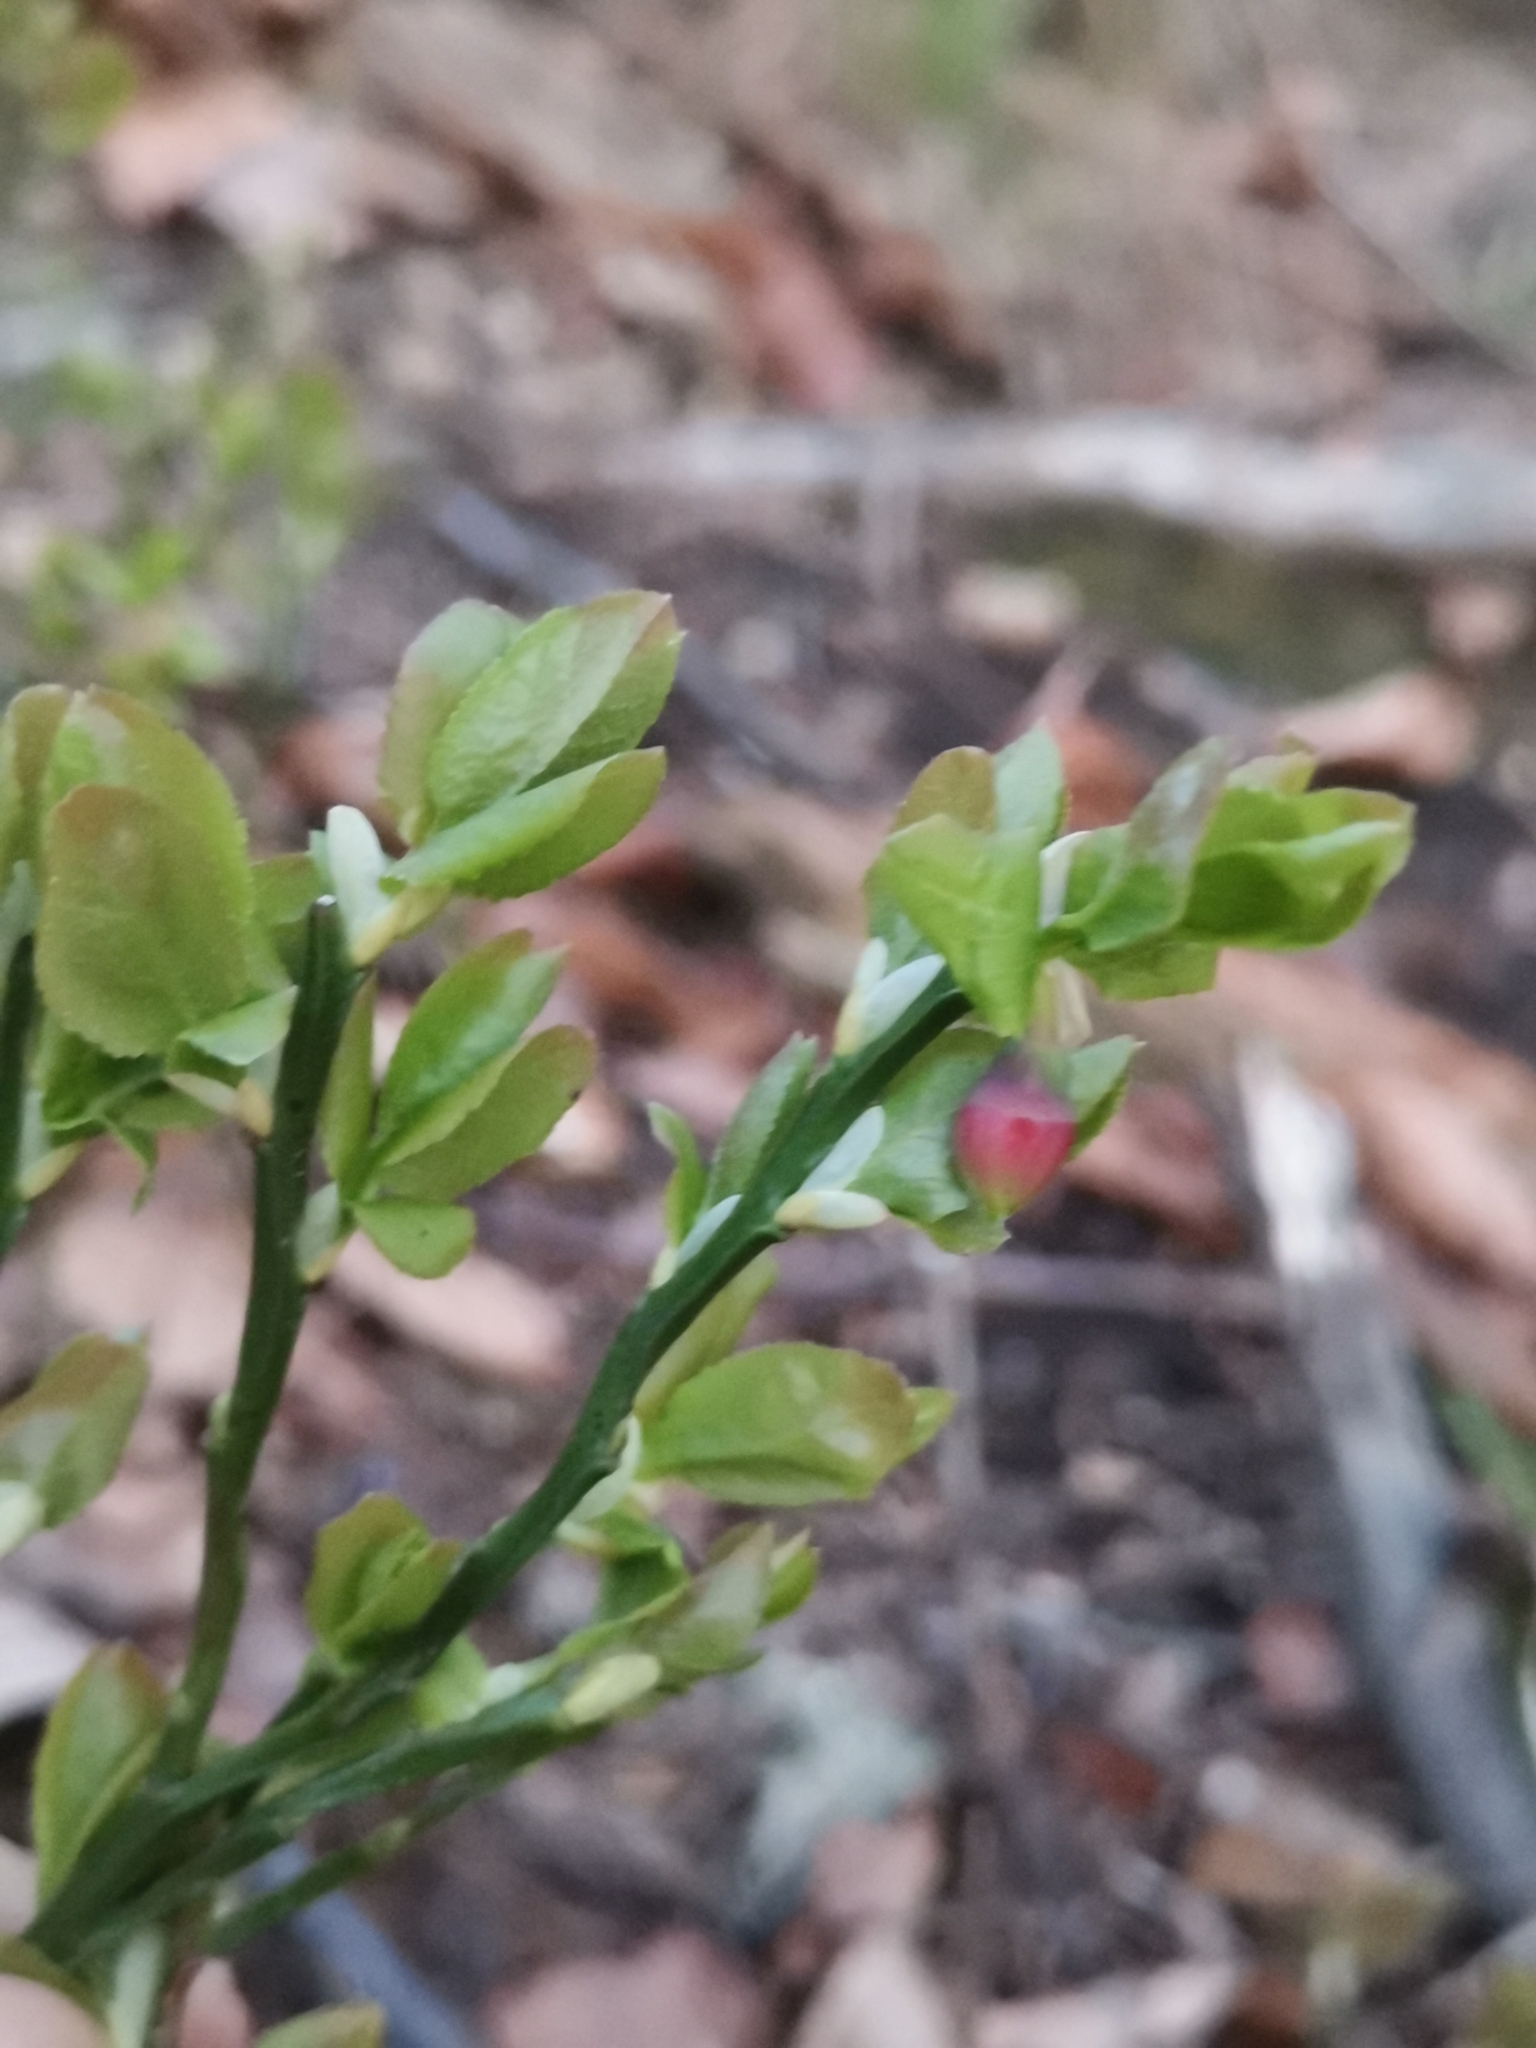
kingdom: Plantae
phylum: Tracheophyta
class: Magnoliopsida
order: Ericales
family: Ericaceae
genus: Vaccinium
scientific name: Vaccinium myrtillus
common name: Bilberry
